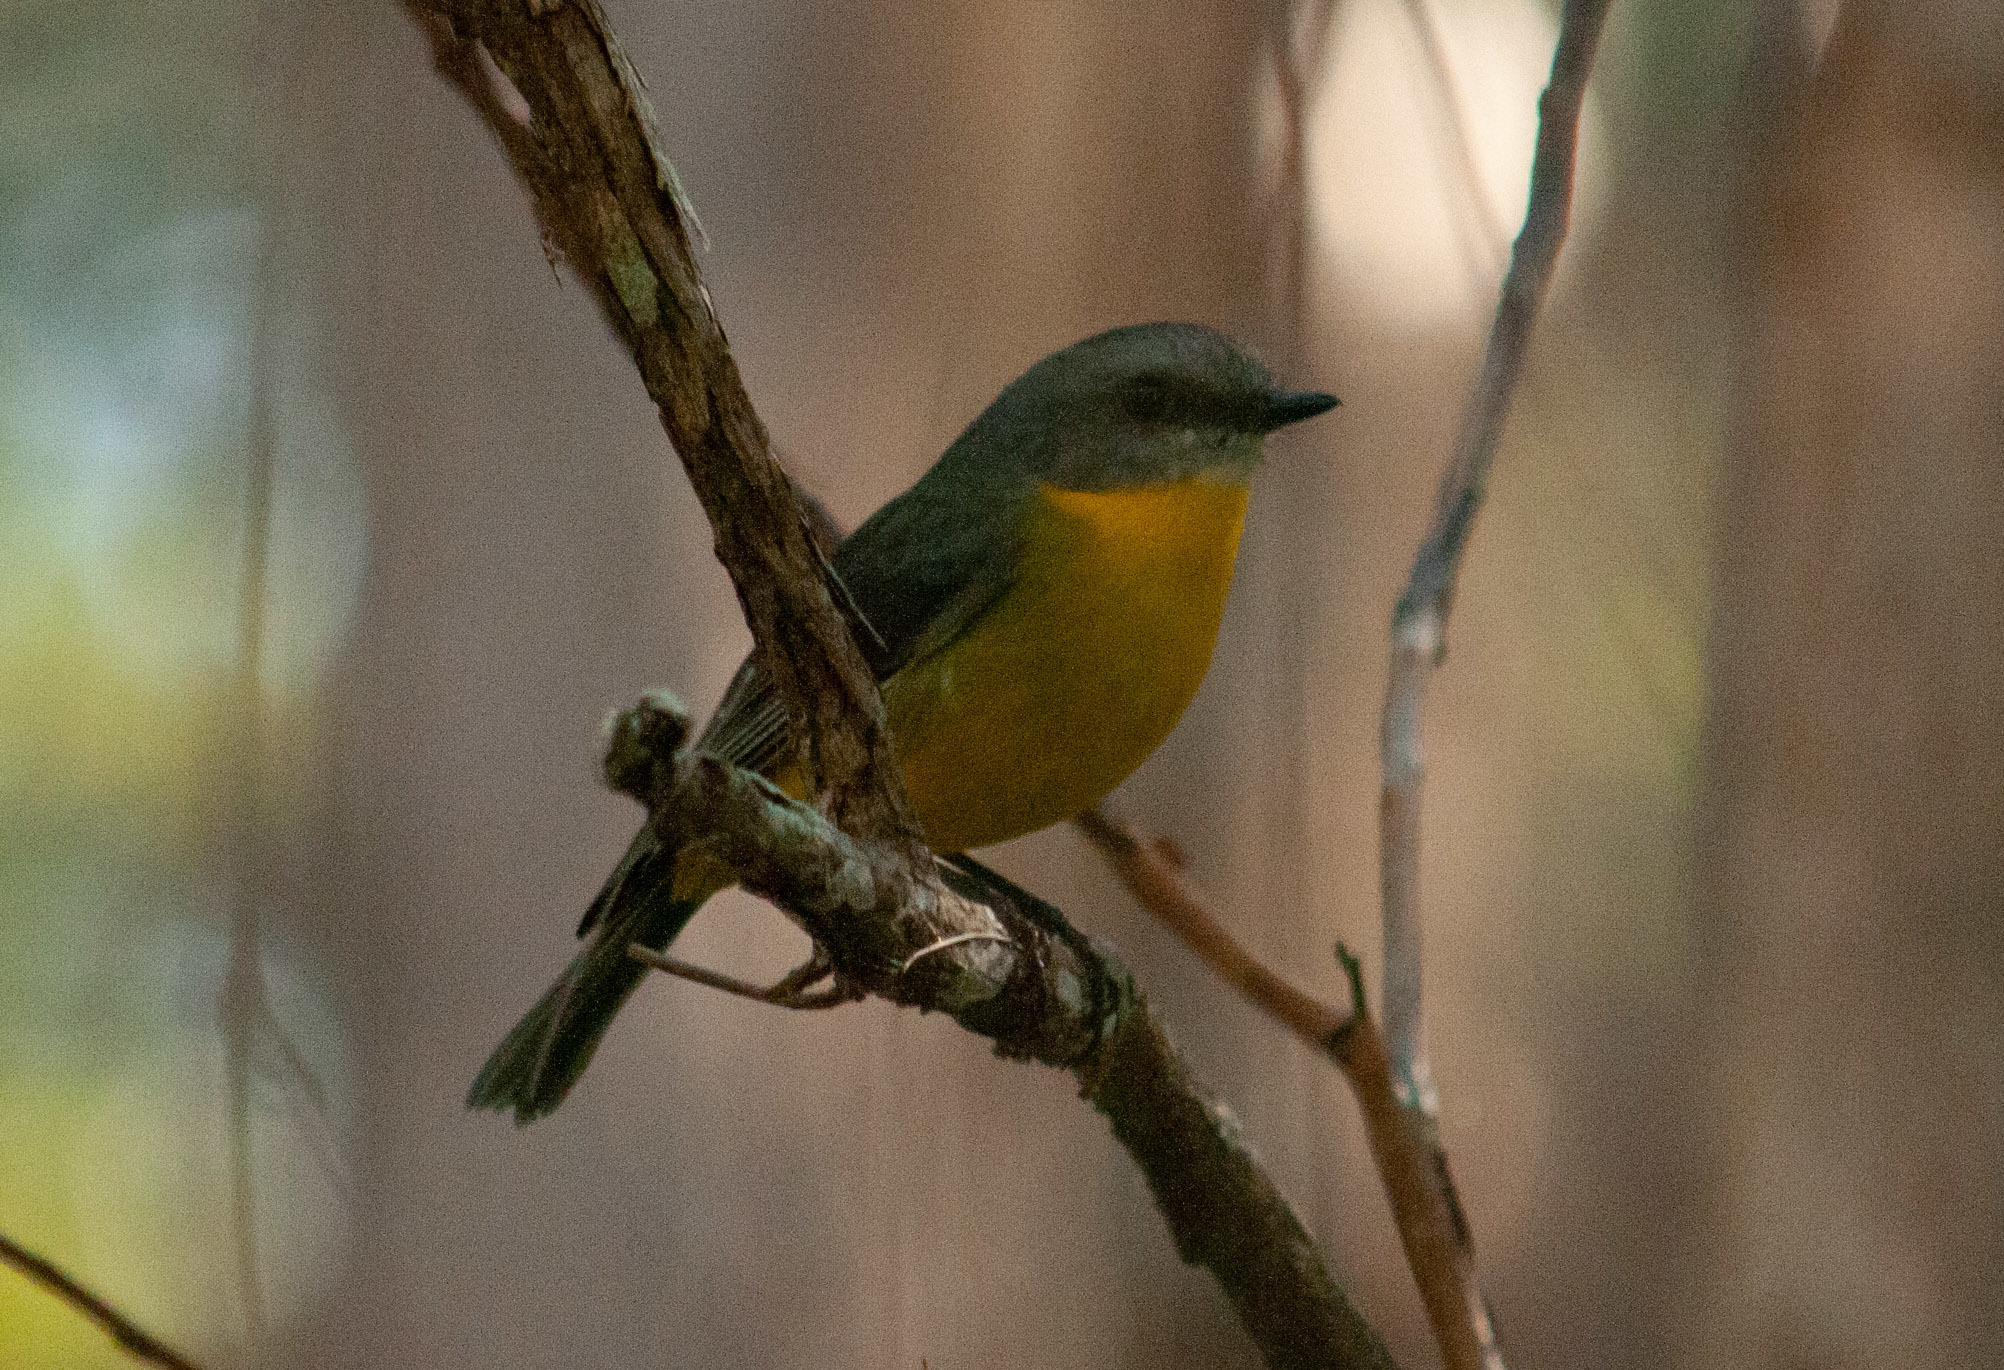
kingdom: Animalia
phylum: Chordata
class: Aves
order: Passeriformes
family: Petroicidae
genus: Eopsaltria
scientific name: Eopsaltria australis
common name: Eastern yellow robin
